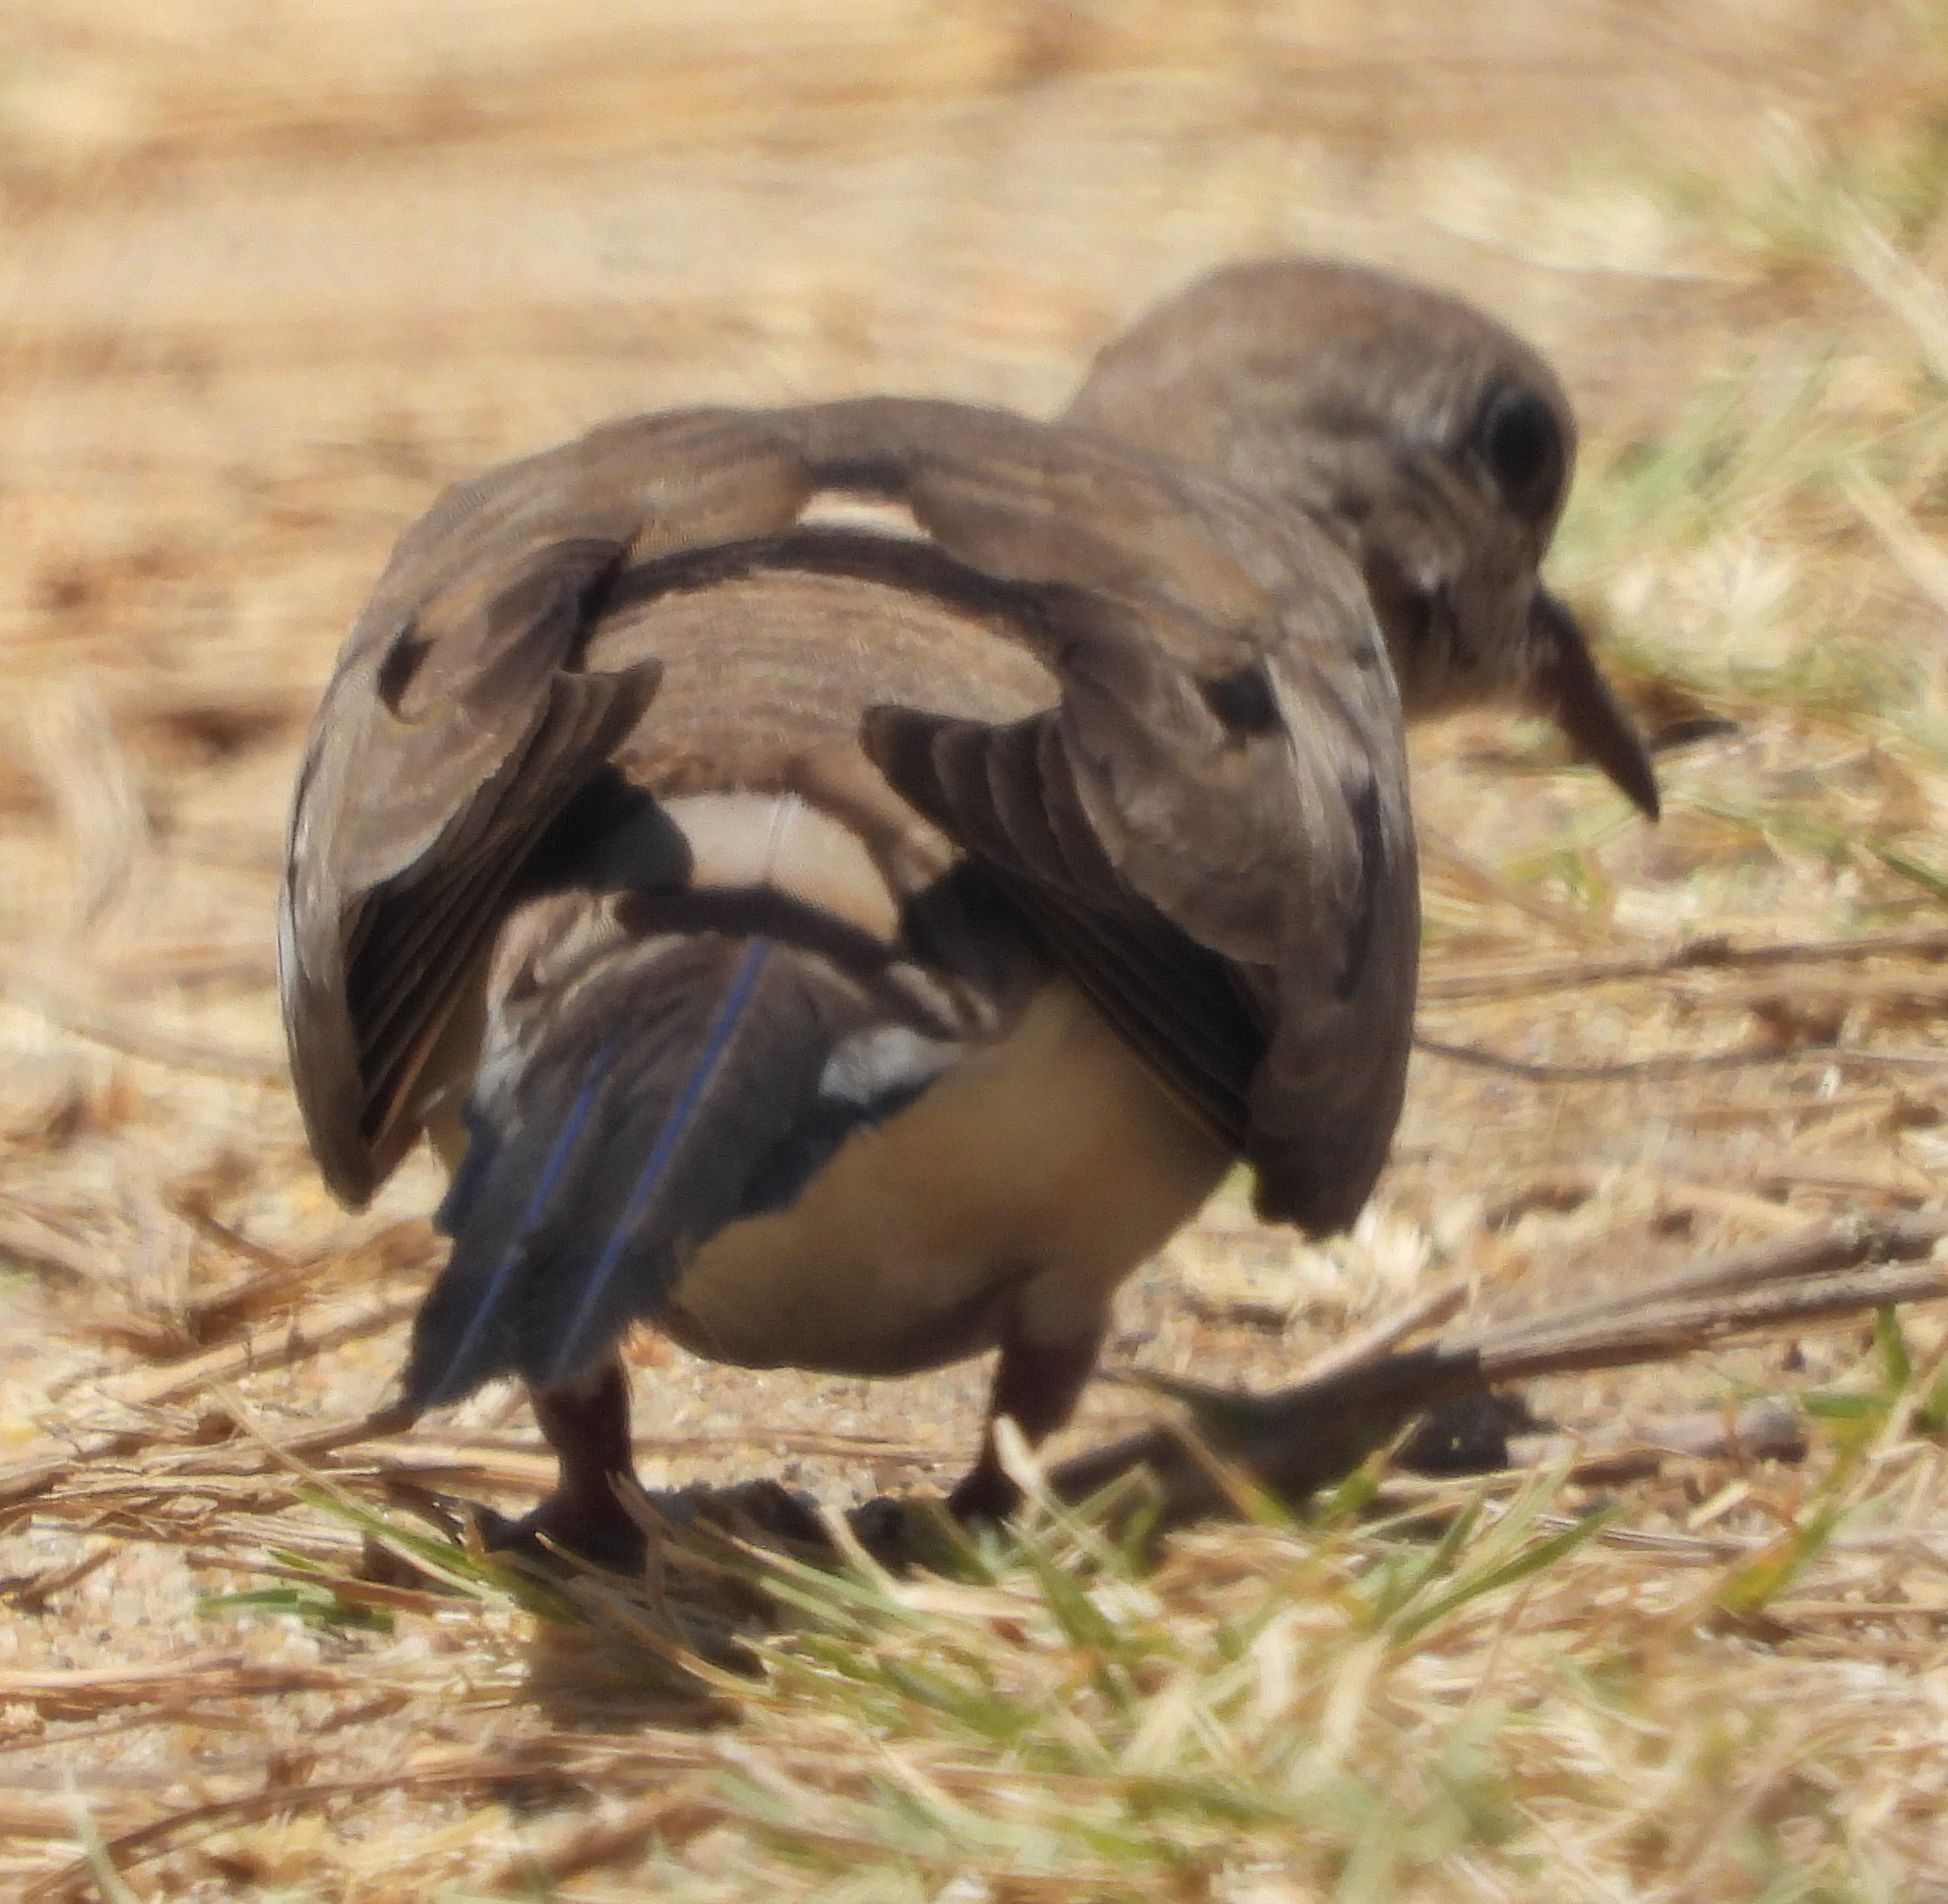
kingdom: Animalia
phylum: Chordata
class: Aves
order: Columbiformes
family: Columbidae
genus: Oena
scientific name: Oena capensis
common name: Namaqua dove
